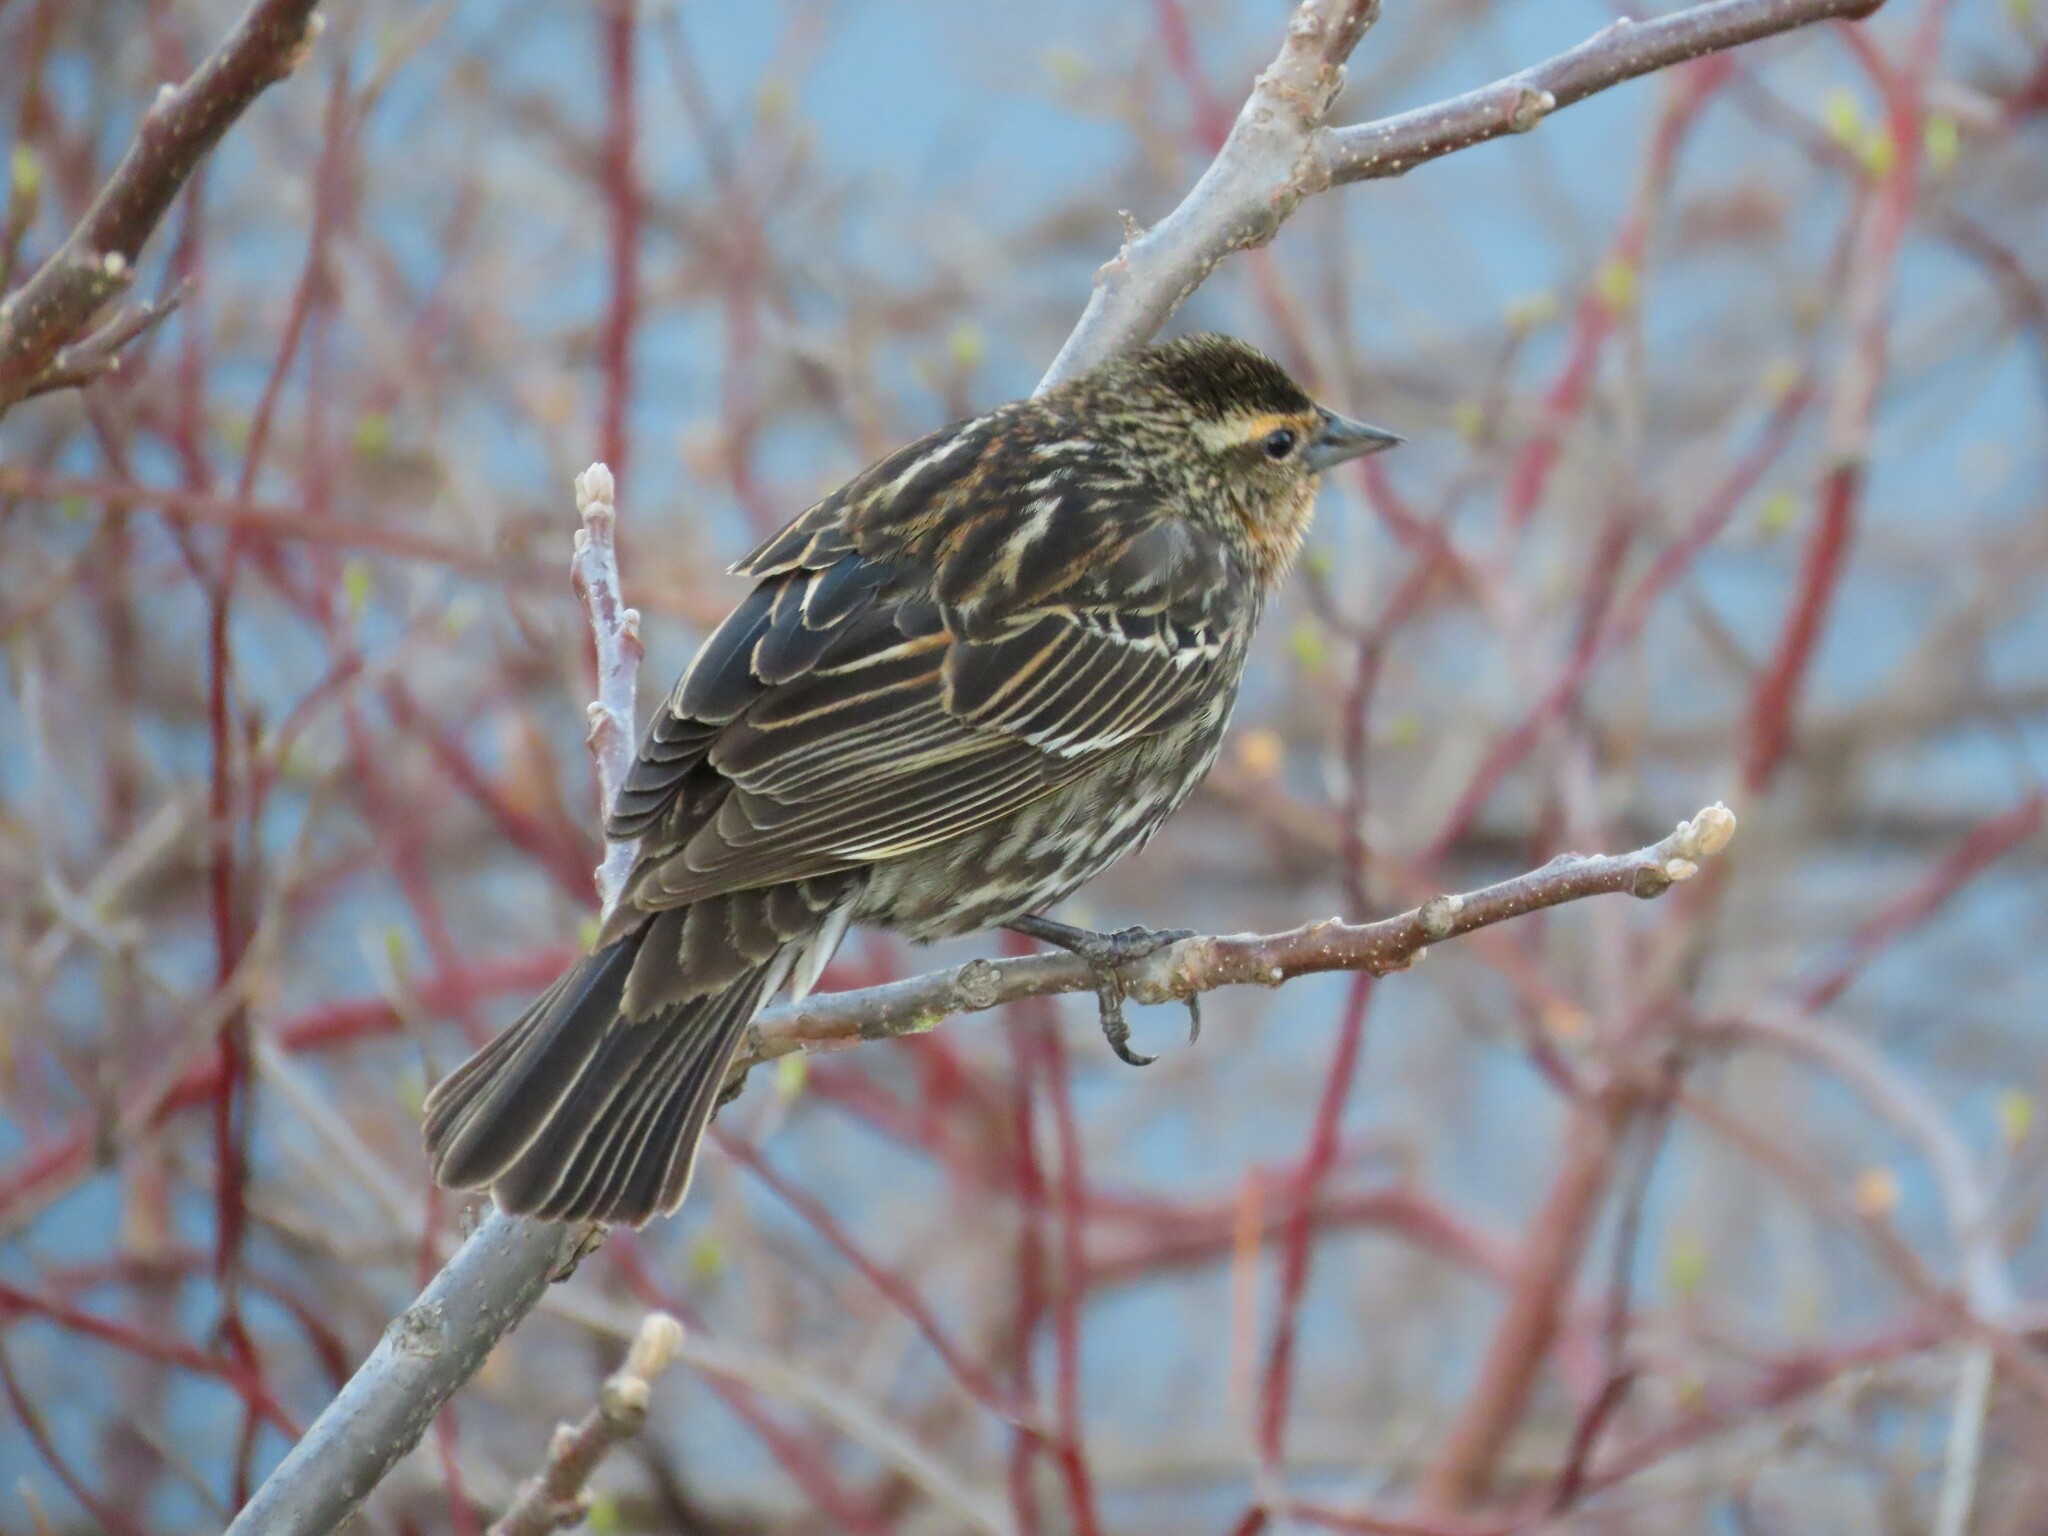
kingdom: Animalia
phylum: Chordata
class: Aves
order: Passeriformes
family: Icteridae
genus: Agelaius
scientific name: Agelaius phoeniceus
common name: Red-winged blackbird
